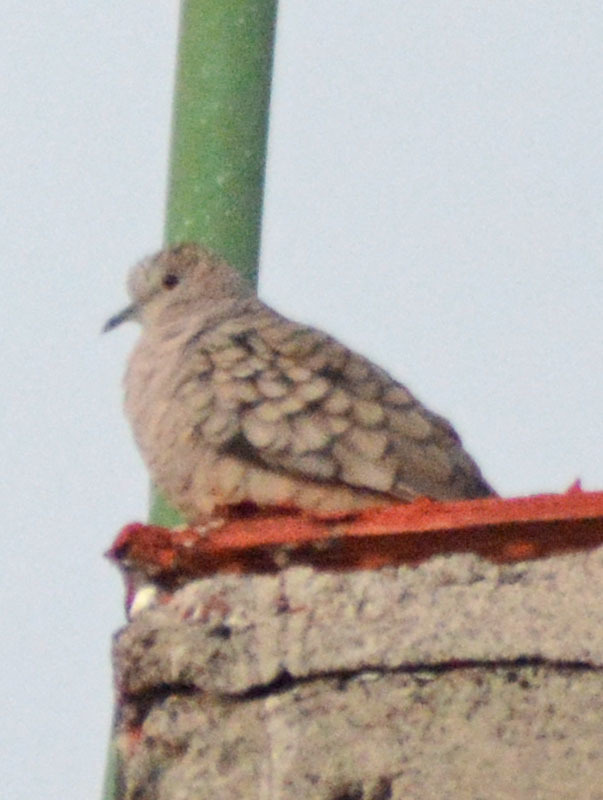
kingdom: Animalia
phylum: Chordata
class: Aves
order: Columbiformes
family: Columbidae
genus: Columbina
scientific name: Columbina inca
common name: Inca dove
